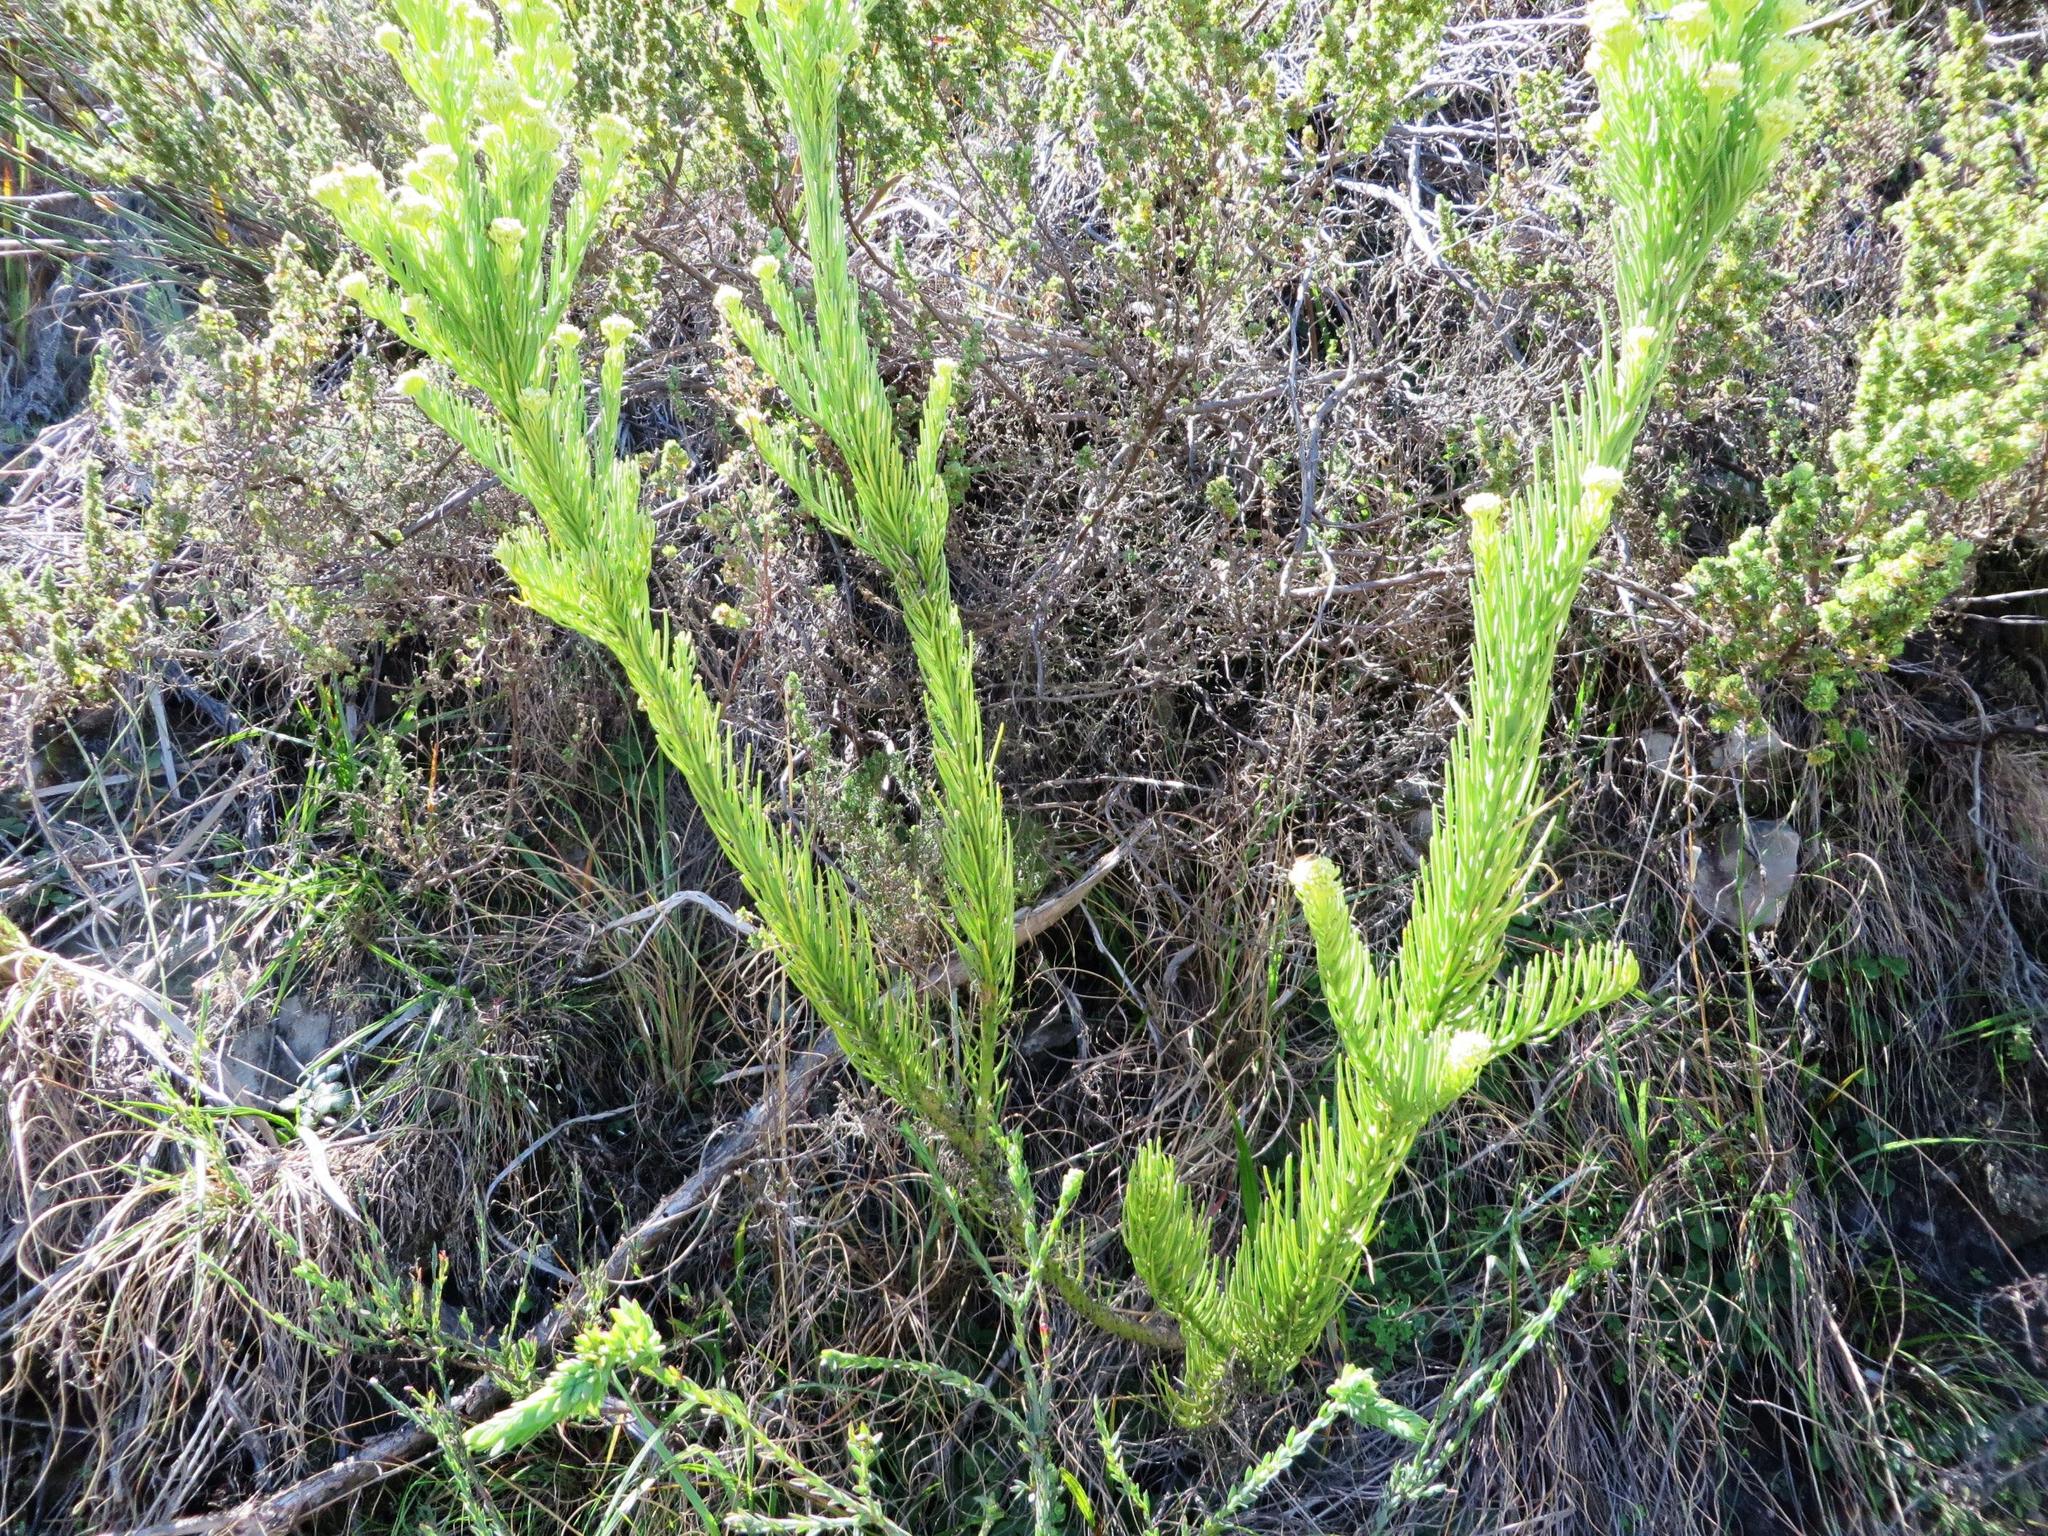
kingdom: Plantae
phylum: Tracheophyta
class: Magnoliopsida
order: Santalales
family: Thesiaceae
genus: Thesium
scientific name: Thesium pinifolium
